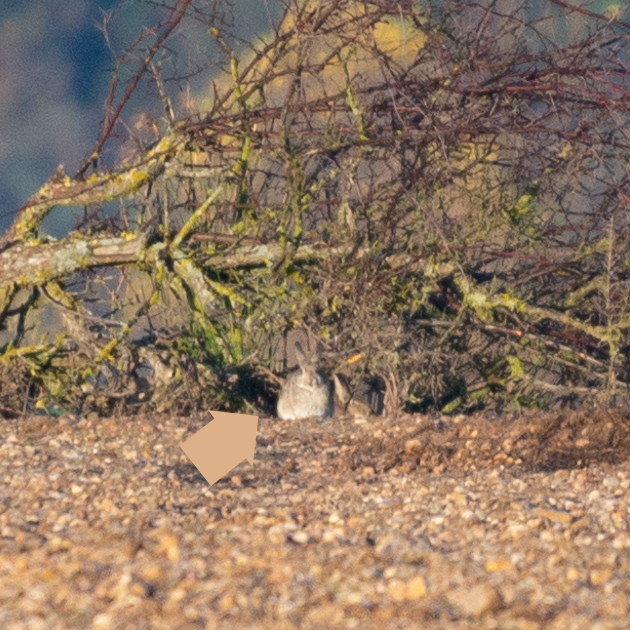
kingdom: Animalia
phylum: Chordata
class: Mammalia
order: Lagomorpha
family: Leporidae
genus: Oryctolagus
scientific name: Oryctolagus cuniculus
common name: European rabbit
